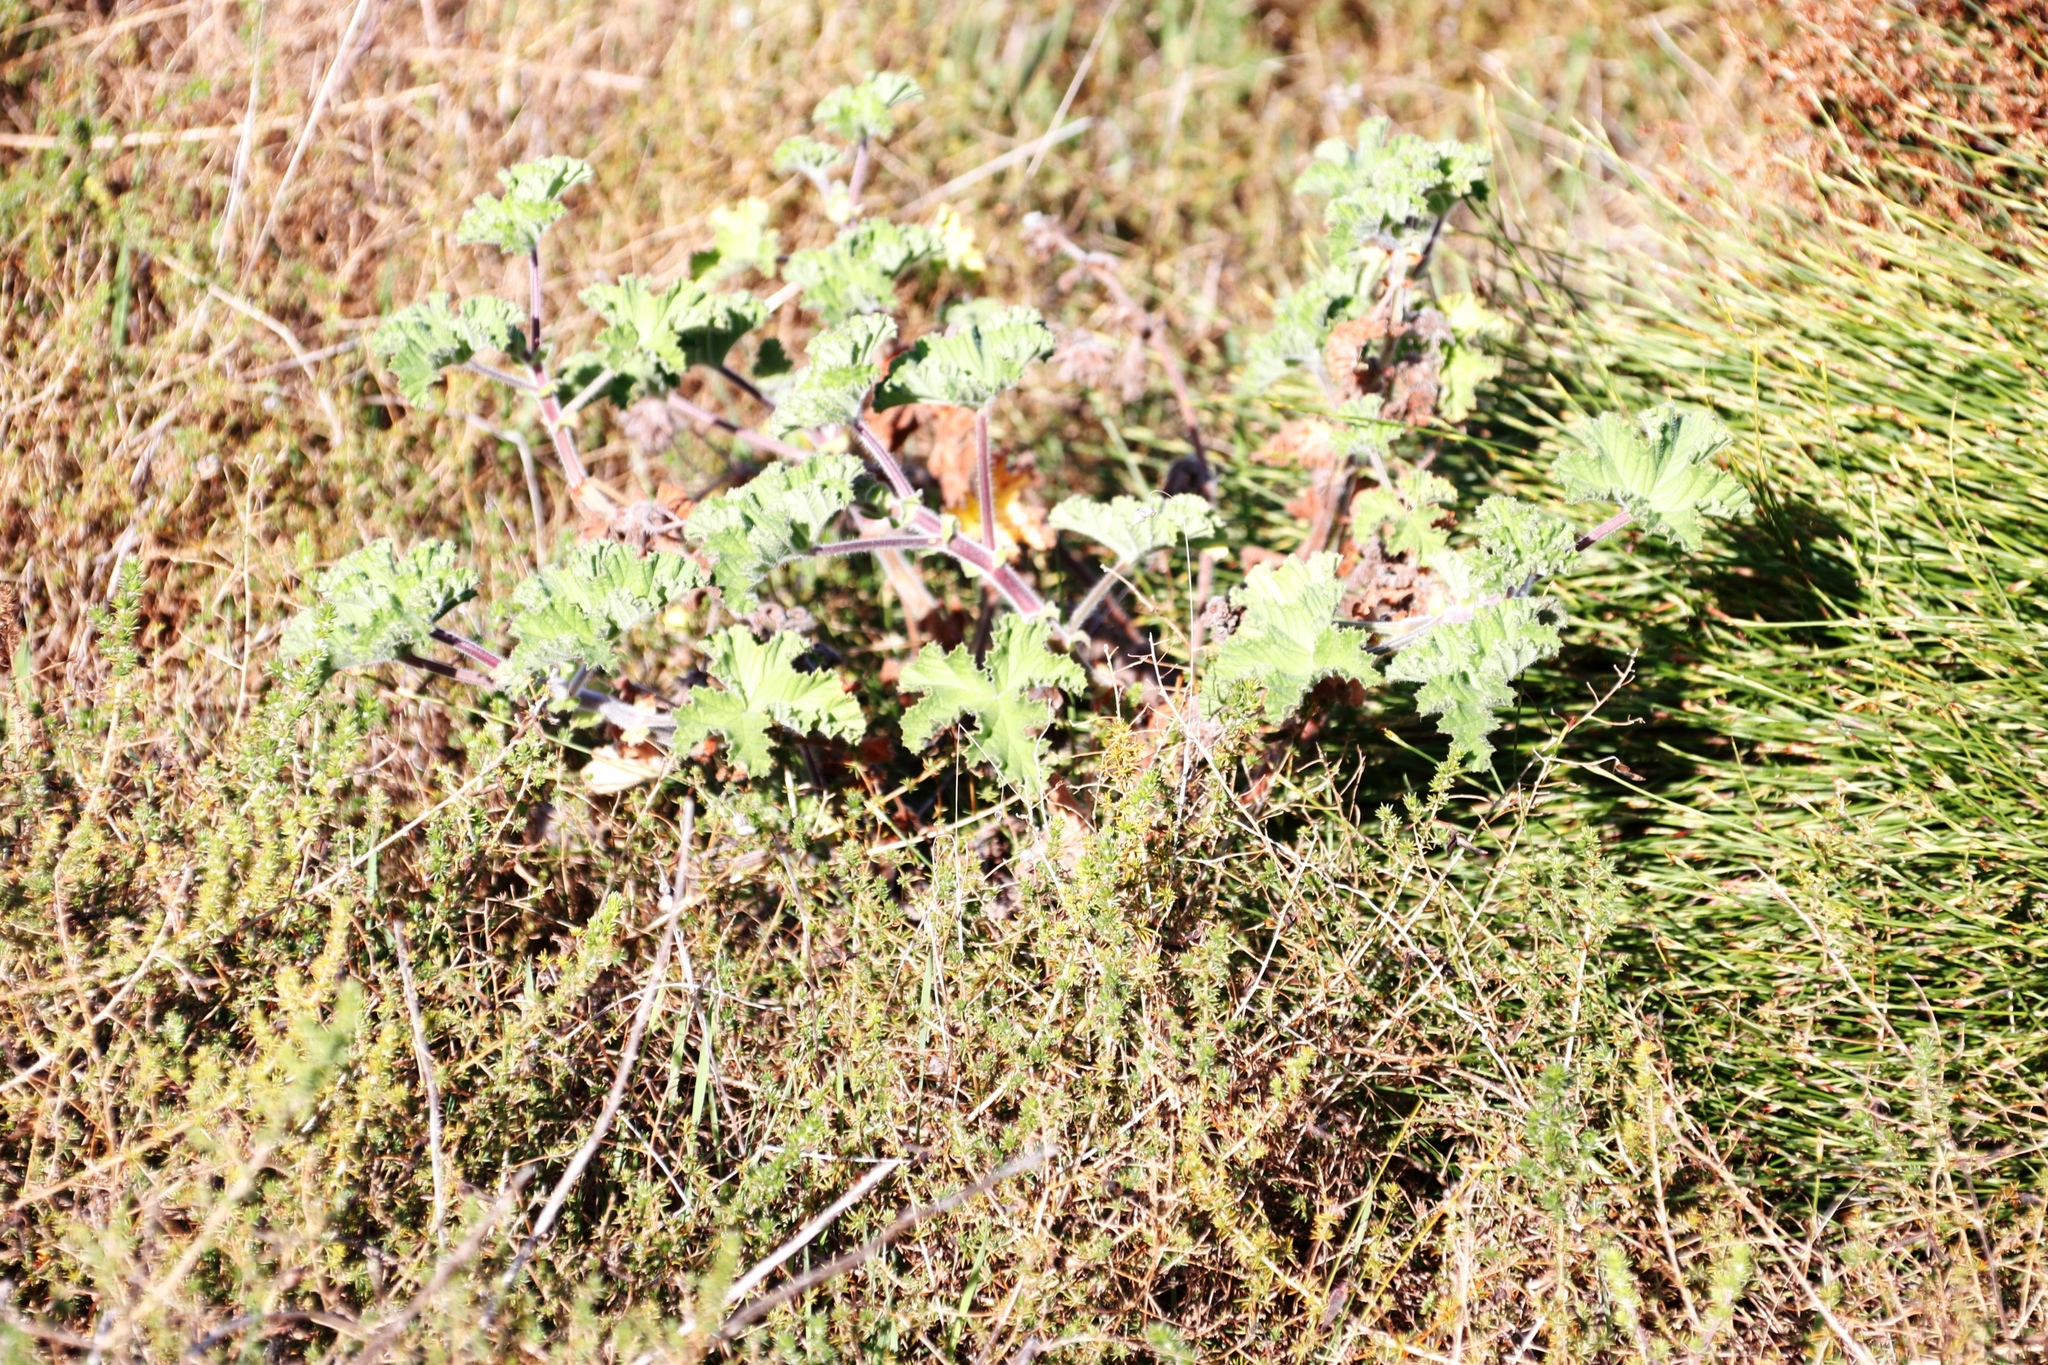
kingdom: Plantae
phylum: Tracheophyta
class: Magnoliopsida
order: Geraniales
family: Geraniaceae
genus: Pelargonium
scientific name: Pelargonium capitatum
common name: Rose scented geranium
